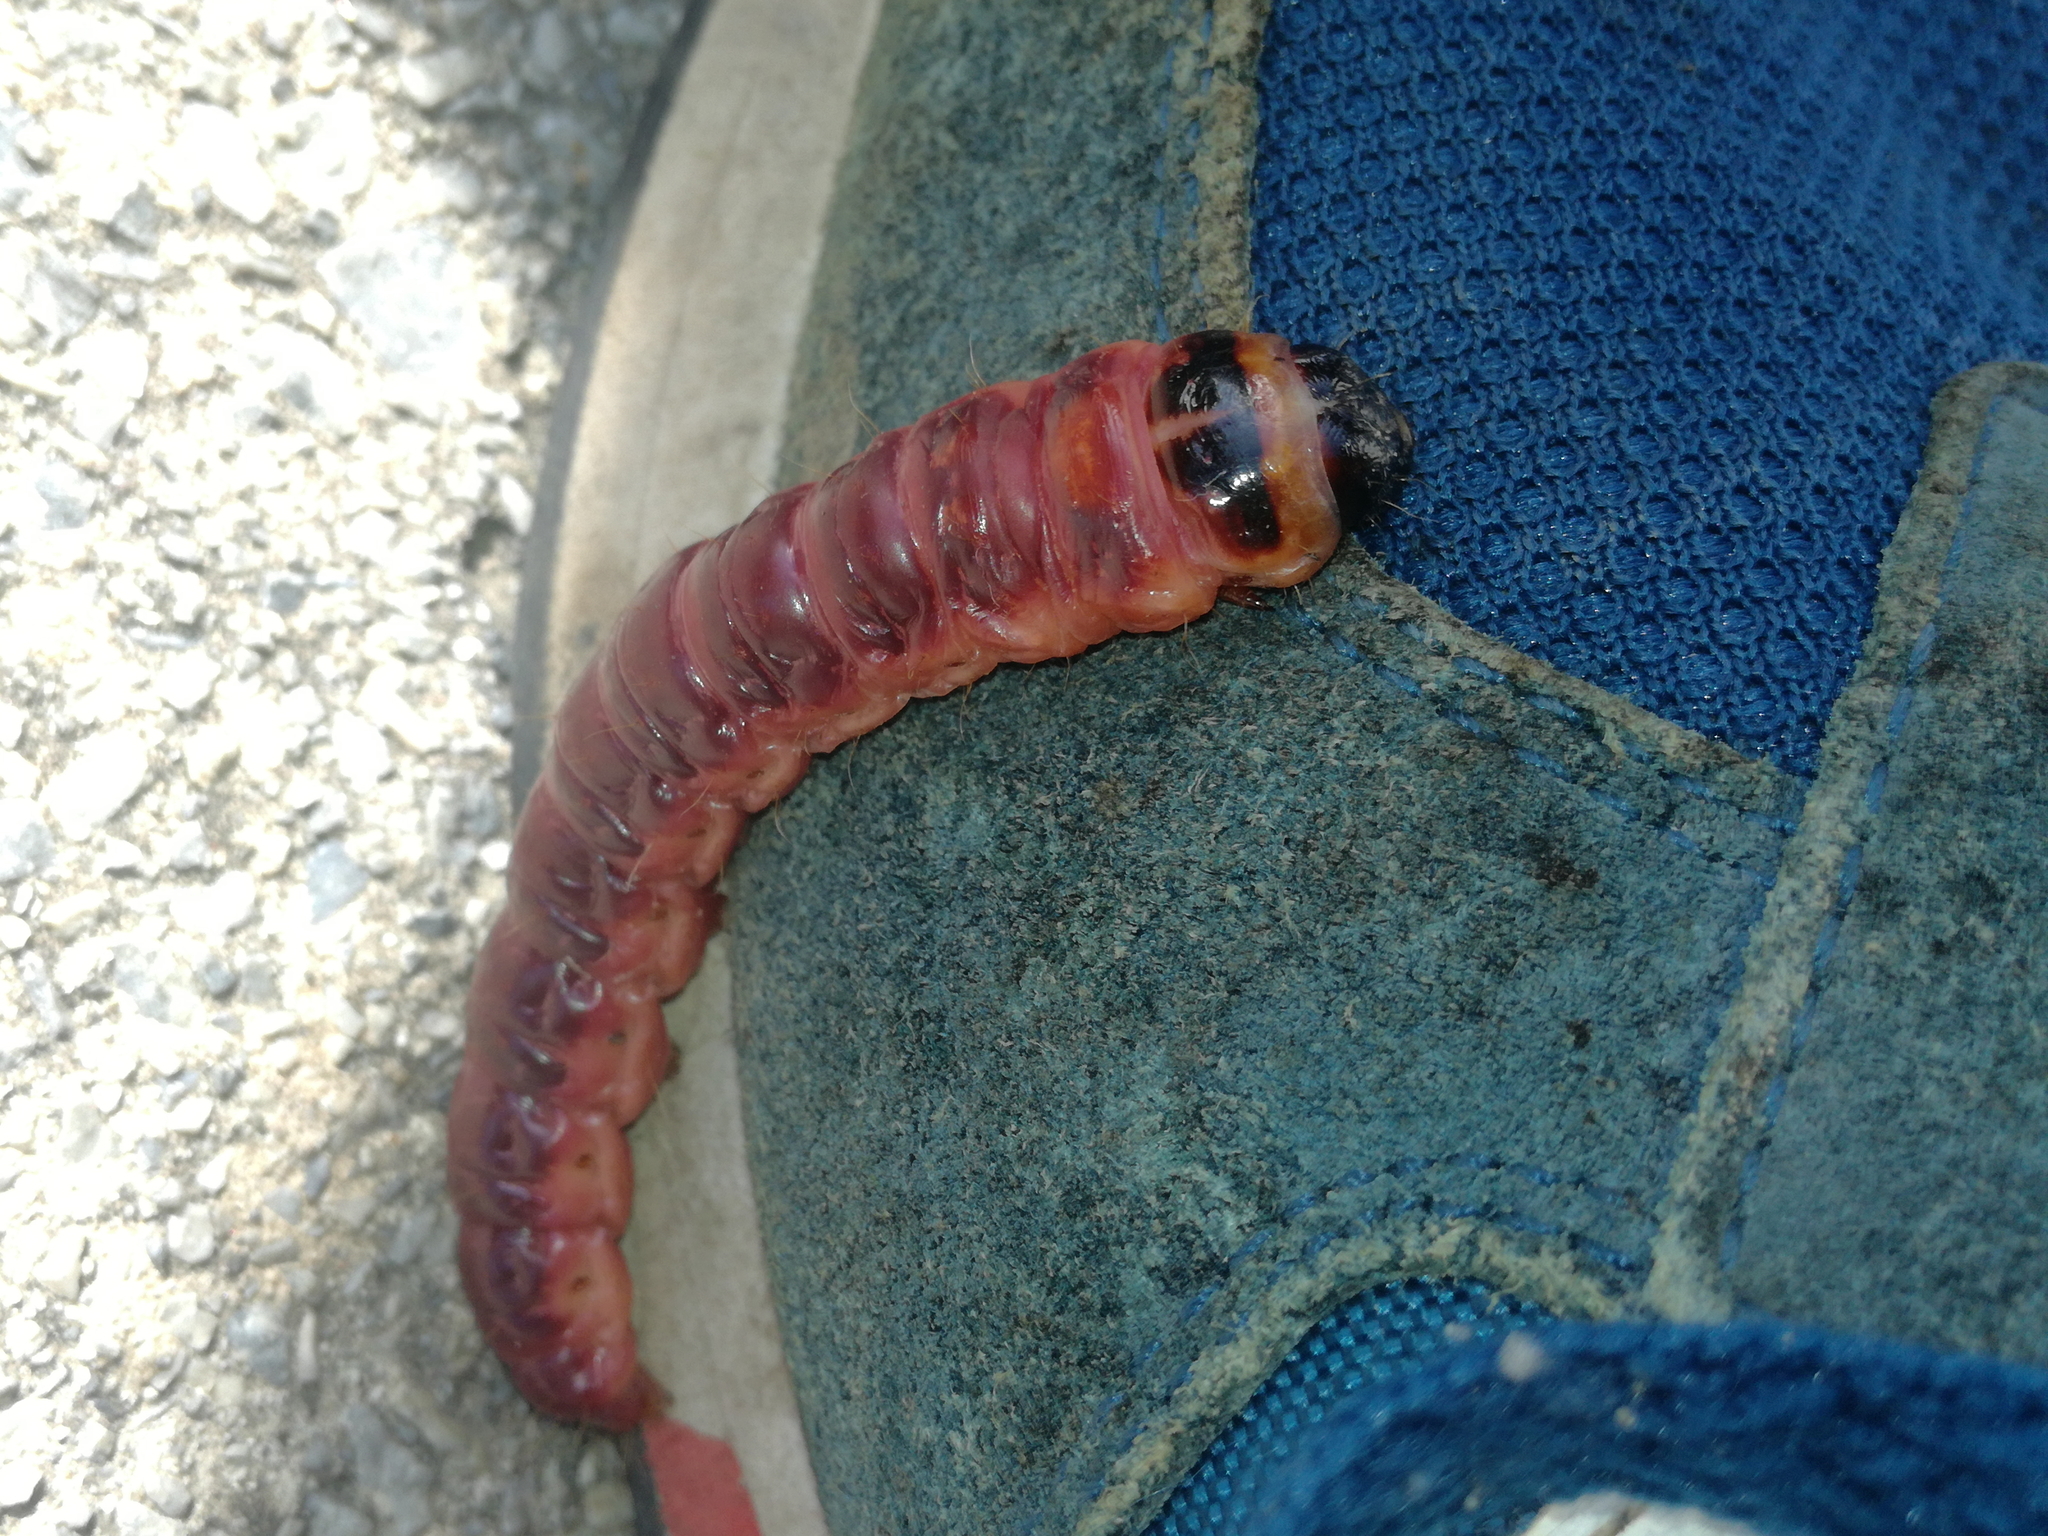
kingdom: Animalia
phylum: Arthropoda
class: Insecta
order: Lepidoptera
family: Cossidae
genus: Cossus
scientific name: Cossus cossus
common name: Goat moth
